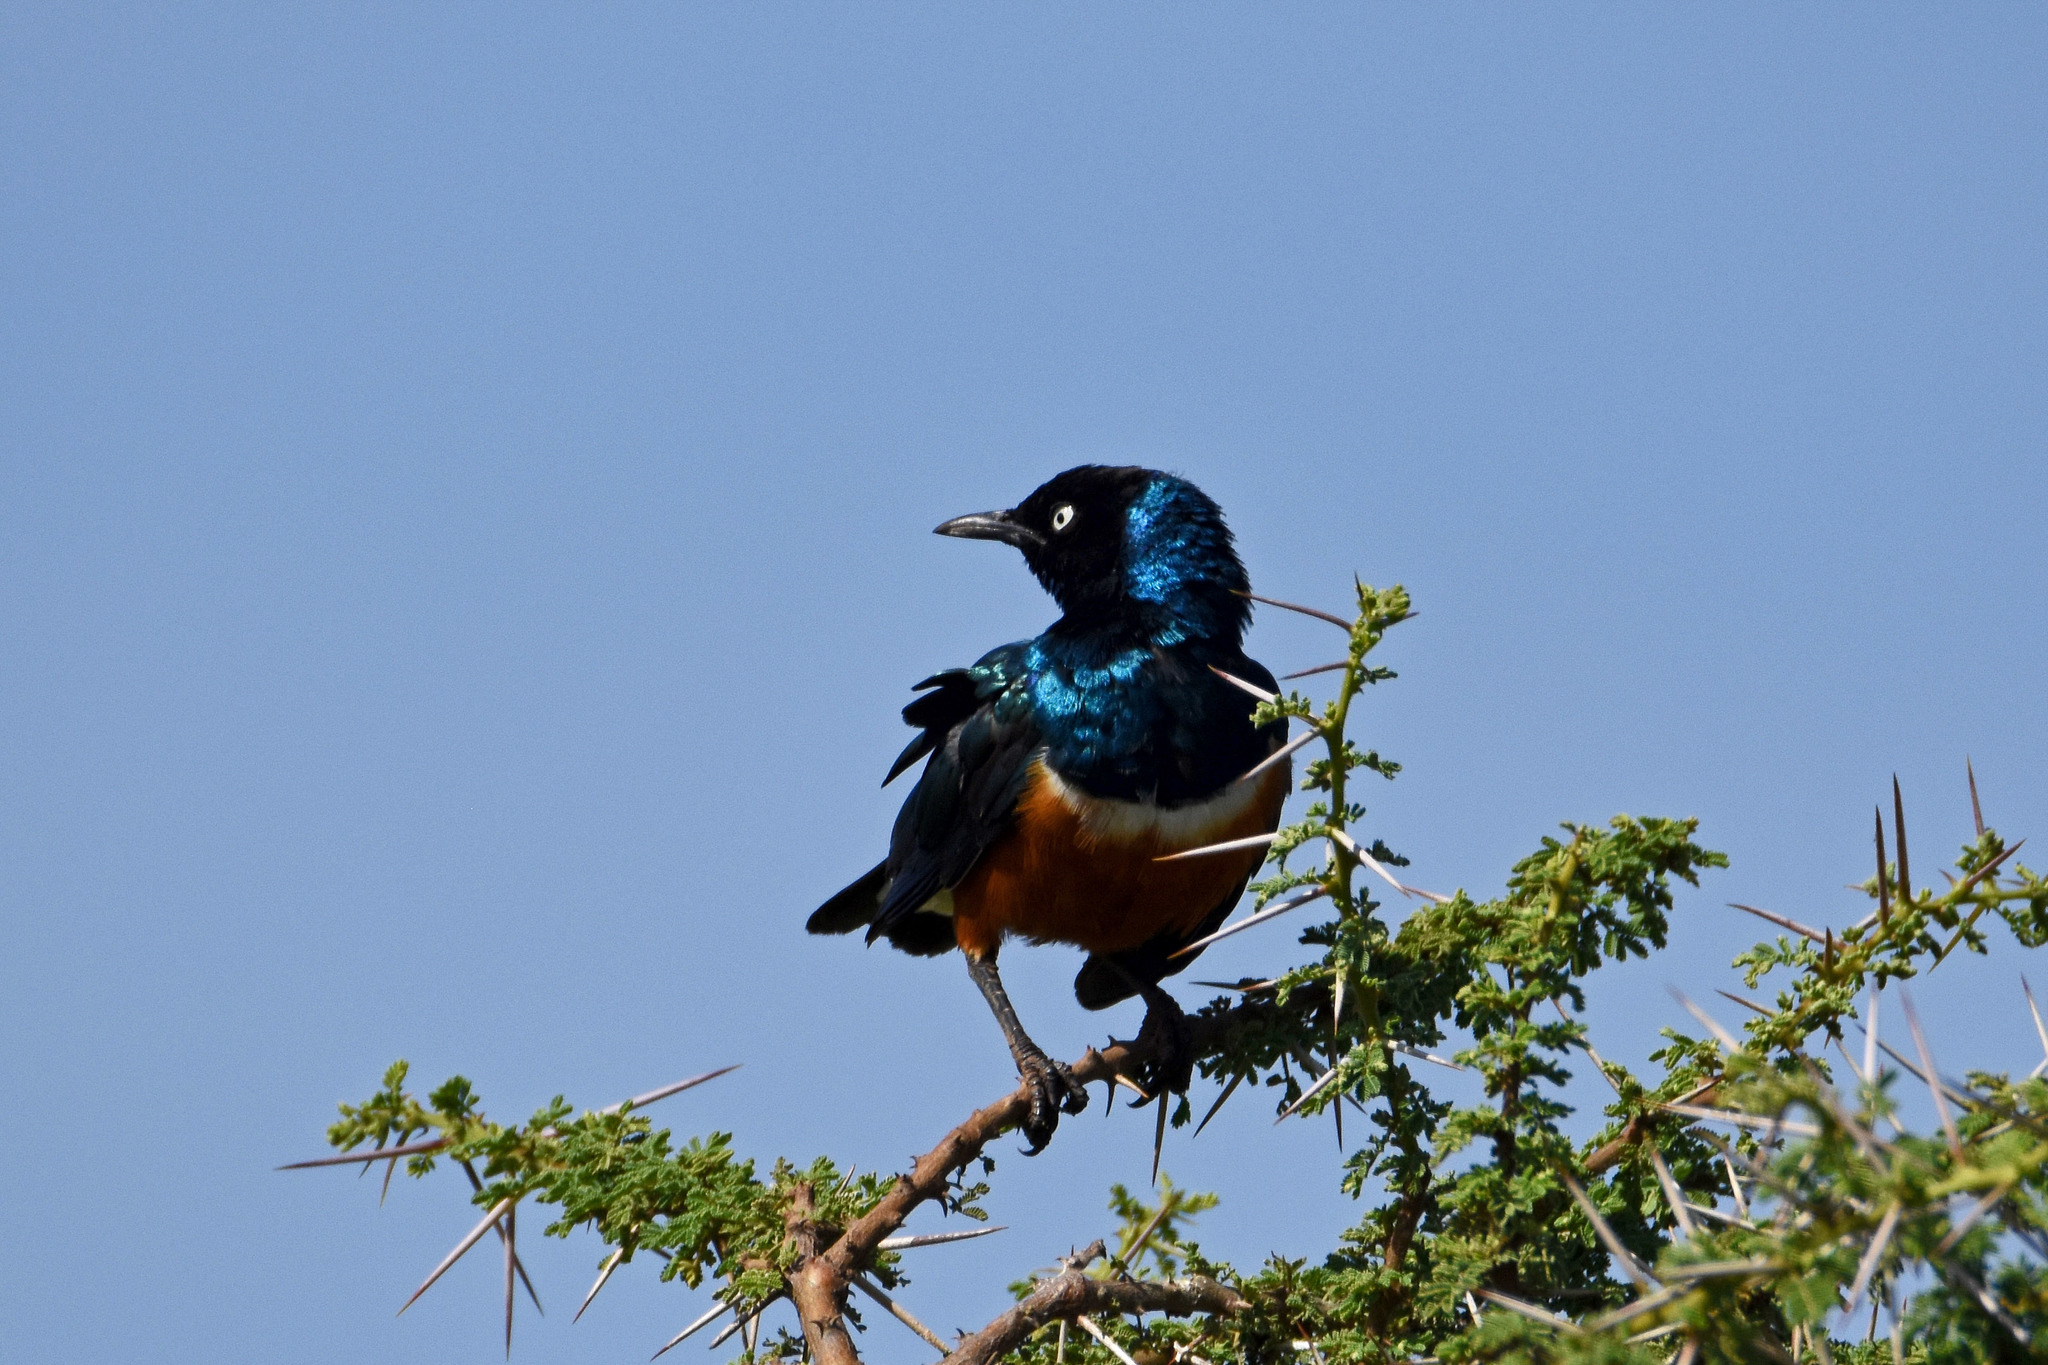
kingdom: Animalia
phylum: Chordata
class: Aves
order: Passeriformes
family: Sturnidae
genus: Lamprotornis
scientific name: Lamprotornis superbus
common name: Superb starling
